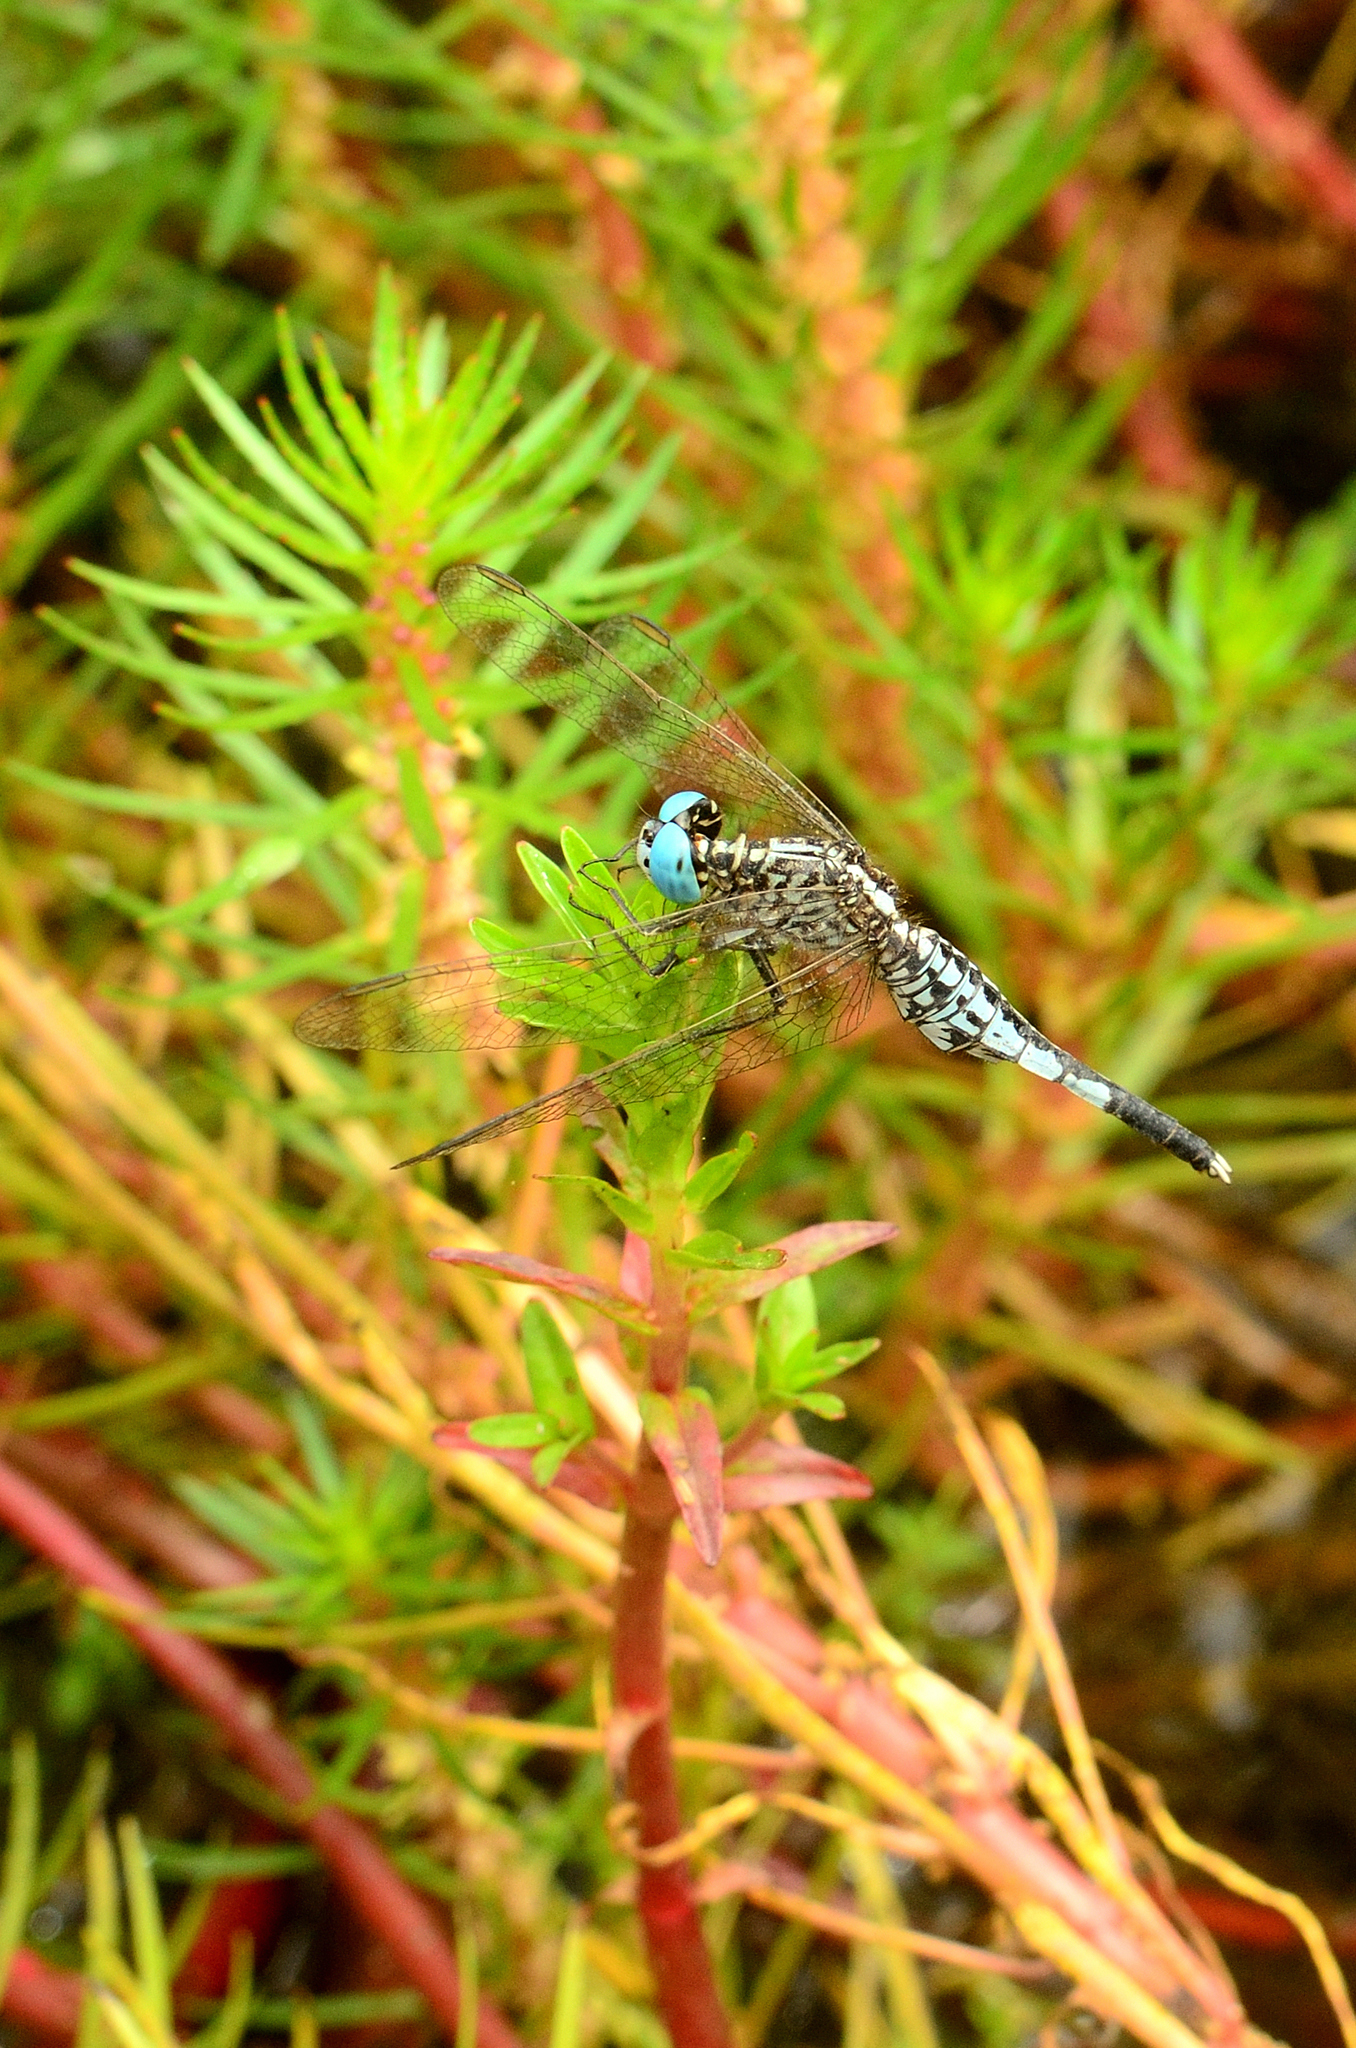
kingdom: Animalia
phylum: Arthropoda
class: Insecta
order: Odonata
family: Libellulidae
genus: Acisoma
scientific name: Acisoma panorpoides
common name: Asian pintail
